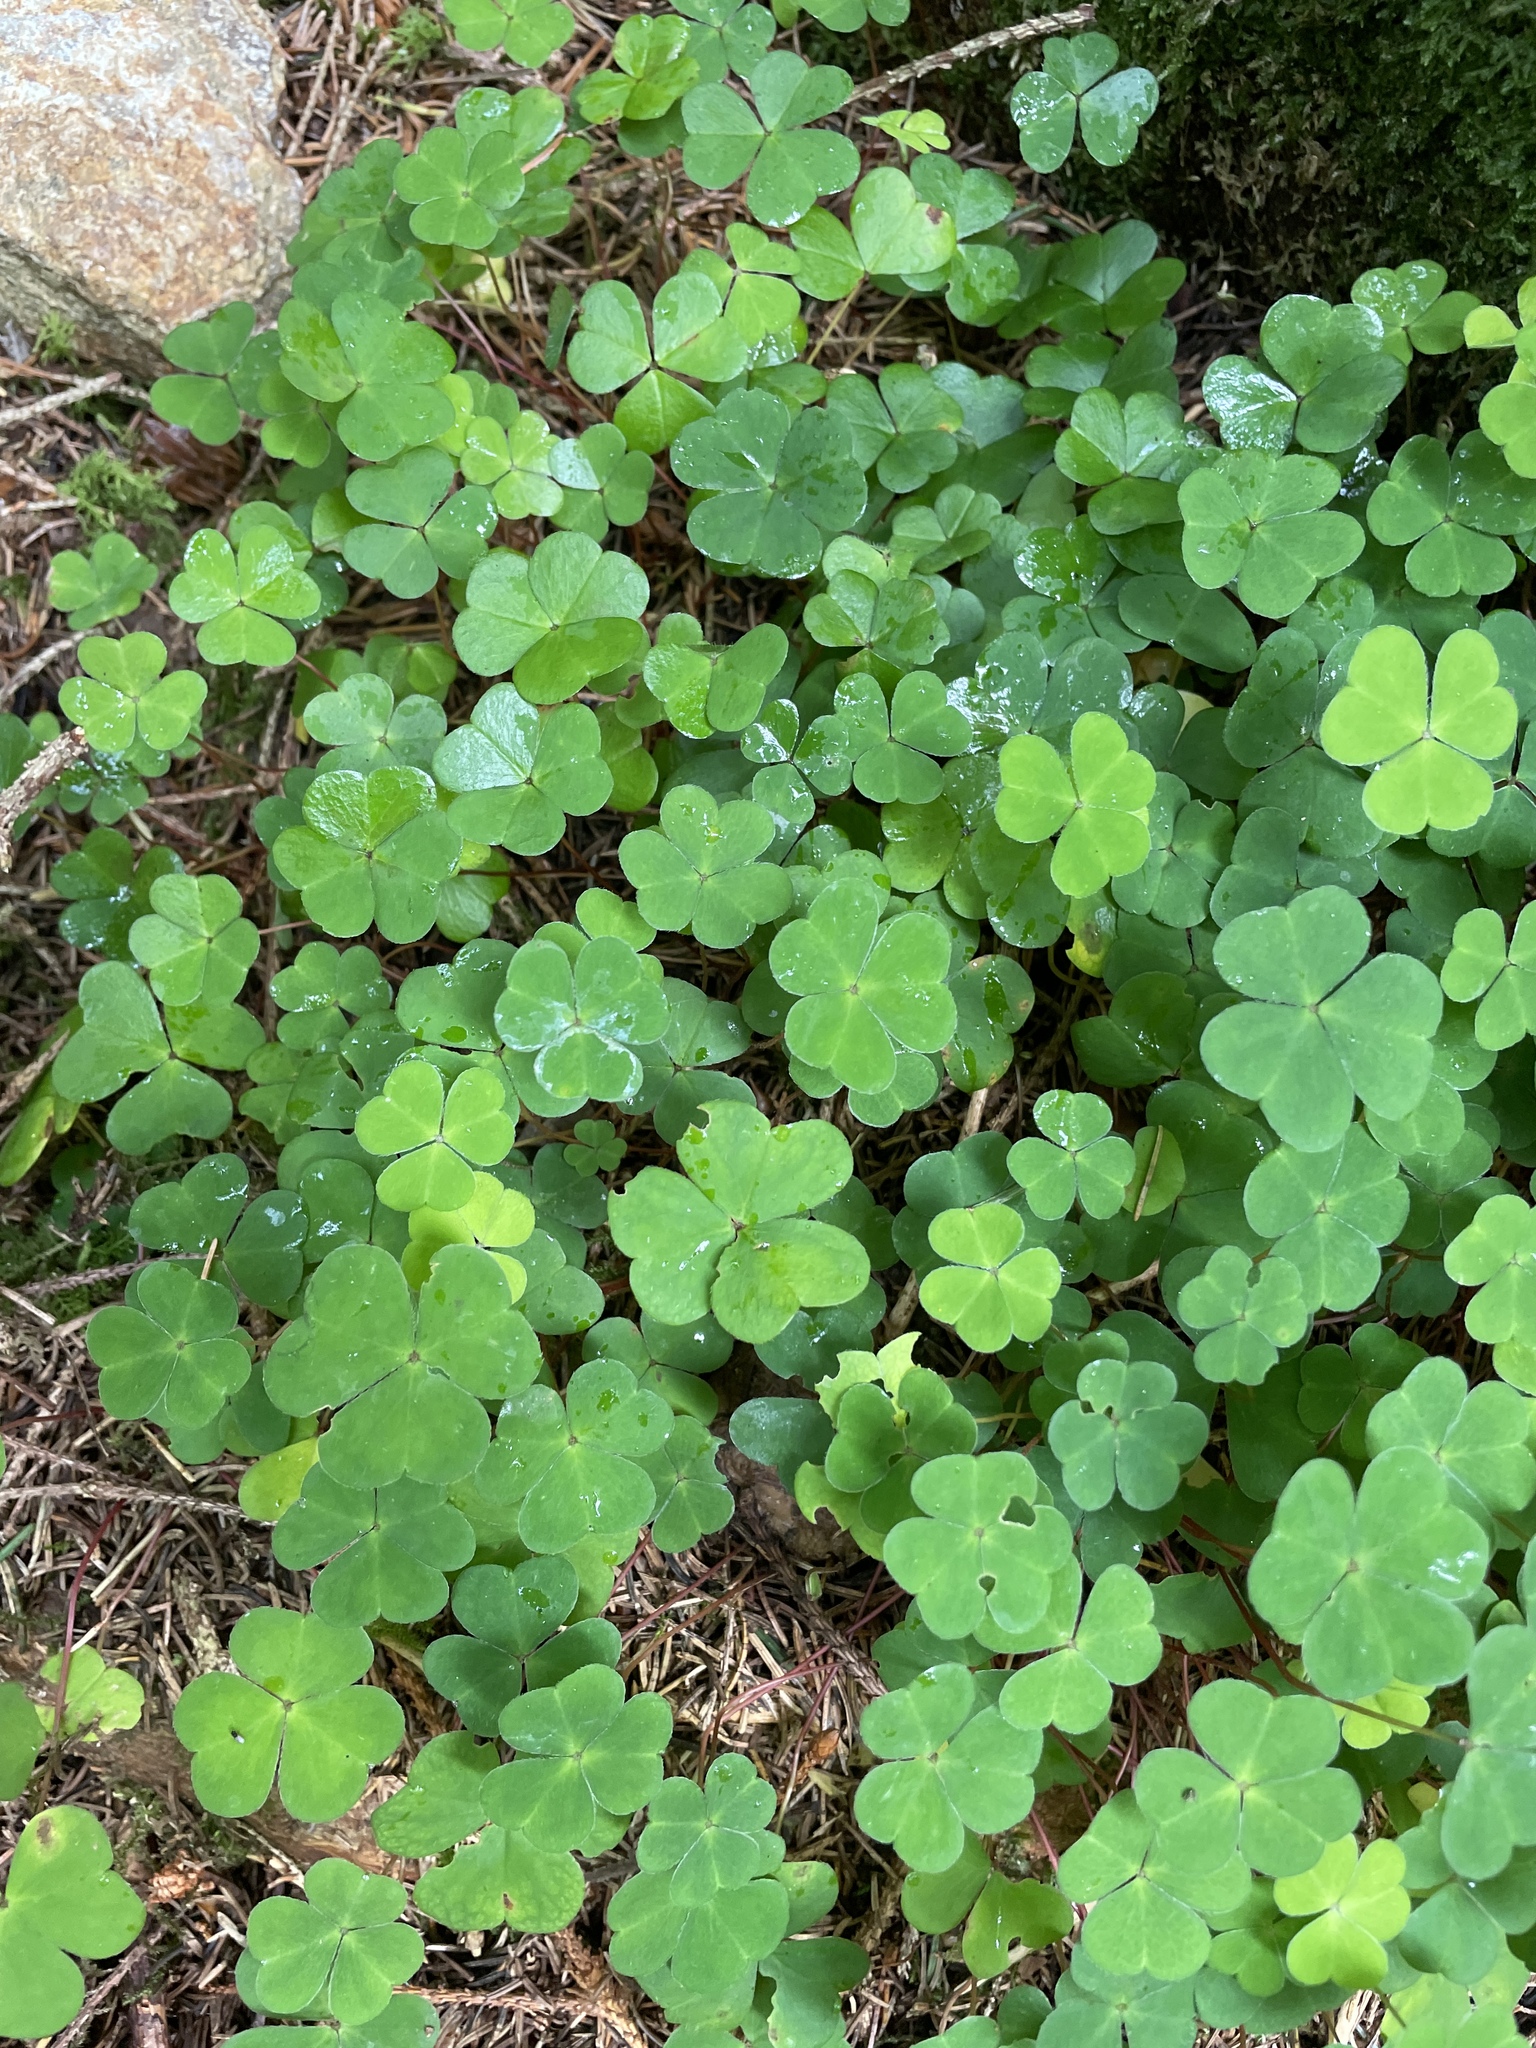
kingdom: Plantae
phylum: Tracheophyta
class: Magnoliopsida
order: Oxalidales
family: Oxalidaceae
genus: Oxalis
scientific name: Oxalis acetosella
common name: Wood-sorrel
